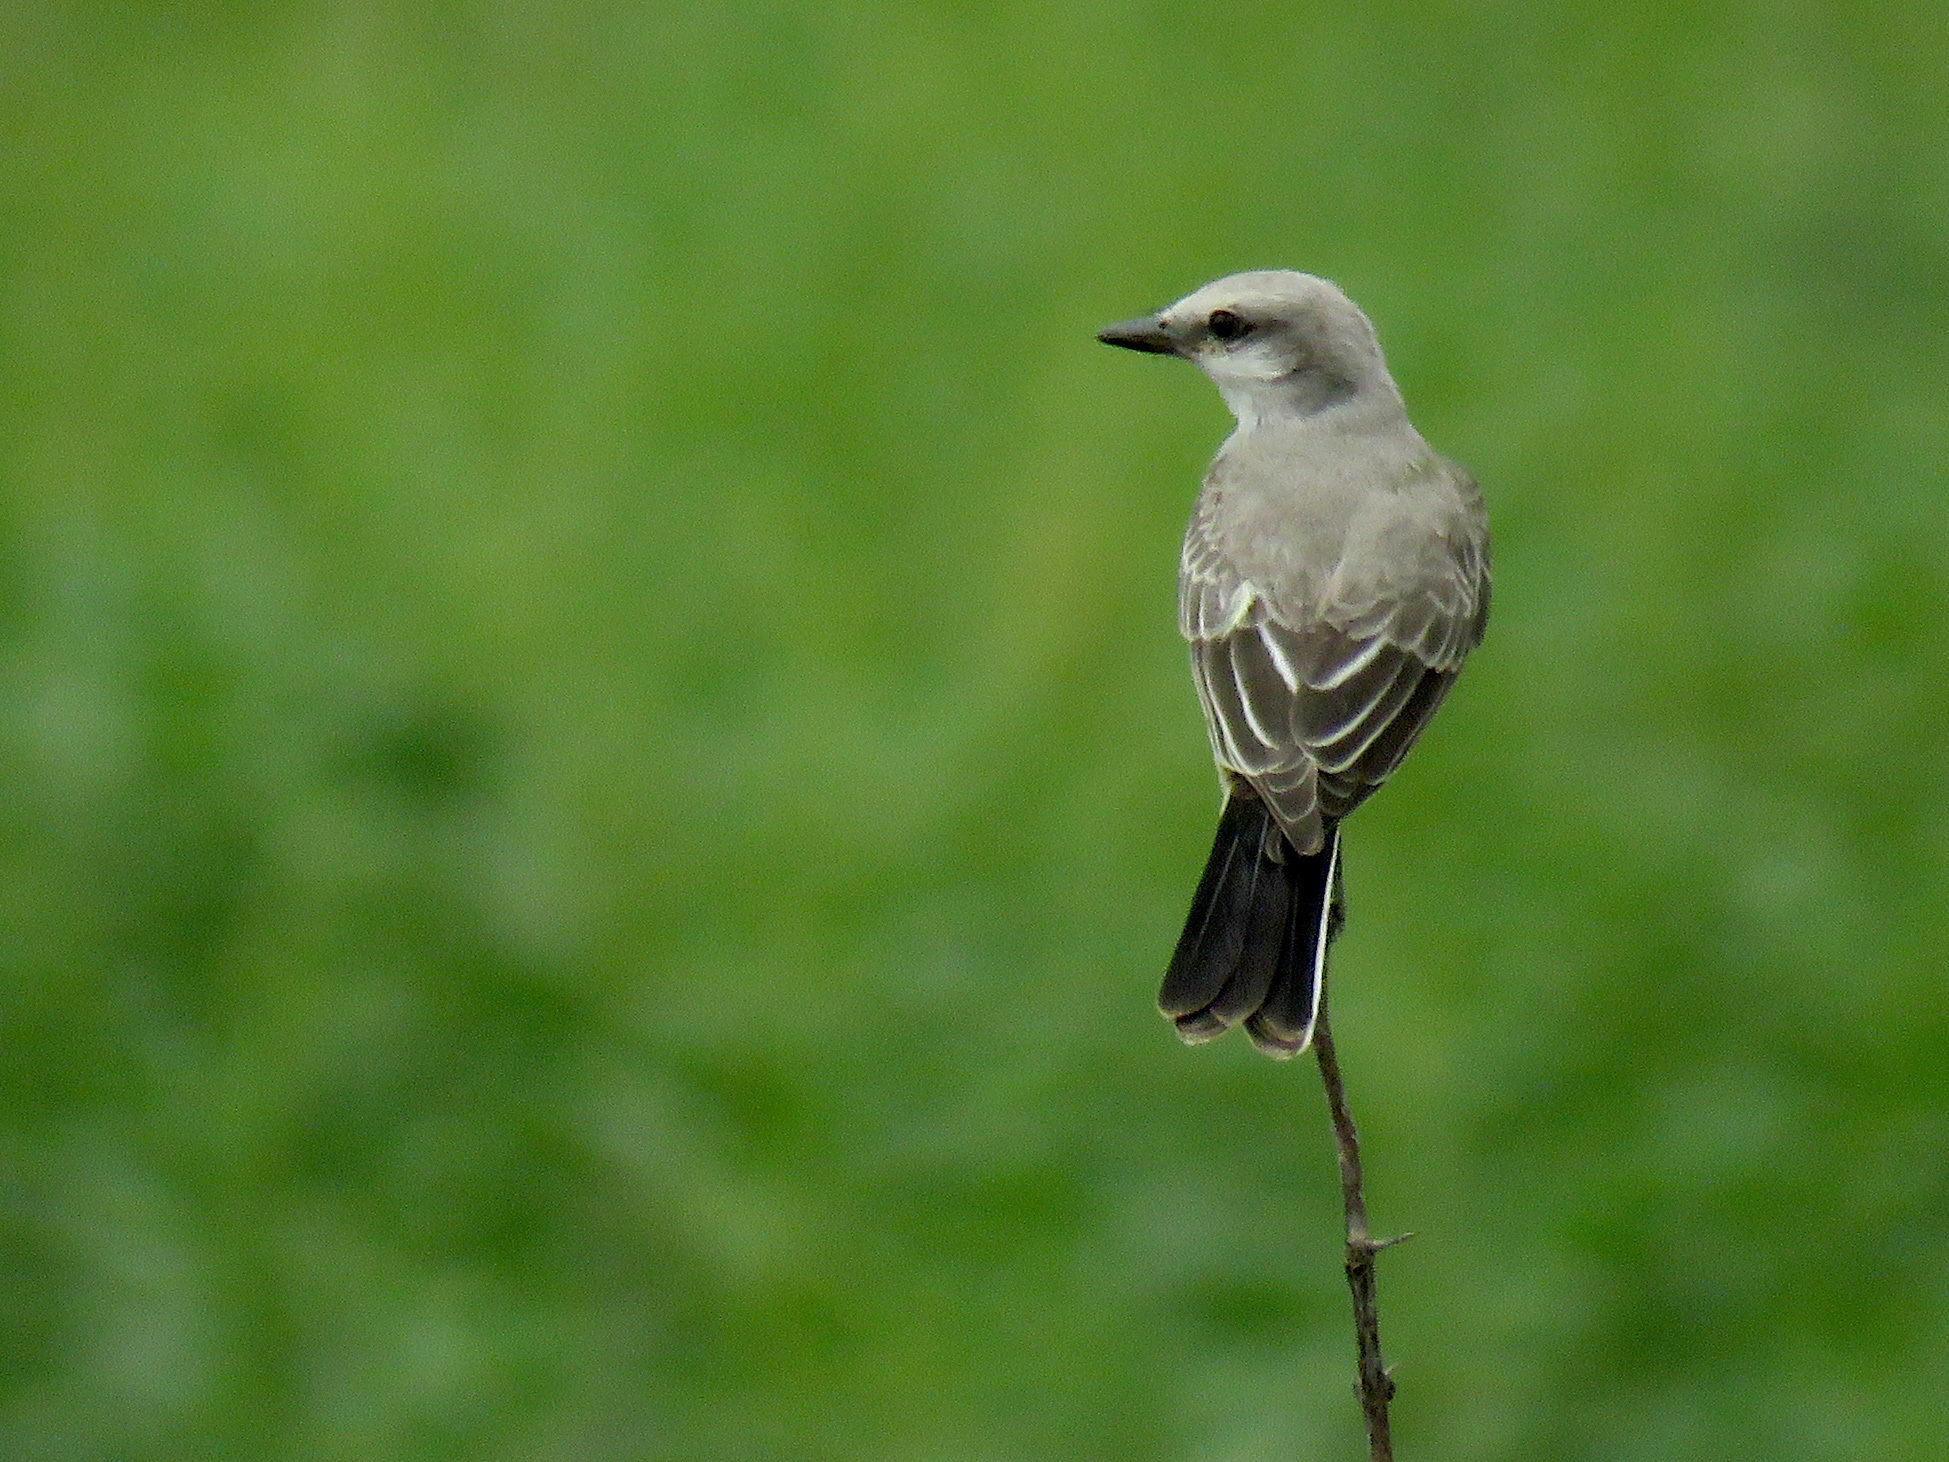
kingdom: Animalia
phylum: Chordata
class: Aves
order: Passeriformes
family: Tyrannidae
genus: Tyrannus
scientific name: Tyrannus verticalis
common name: Western kingbird
